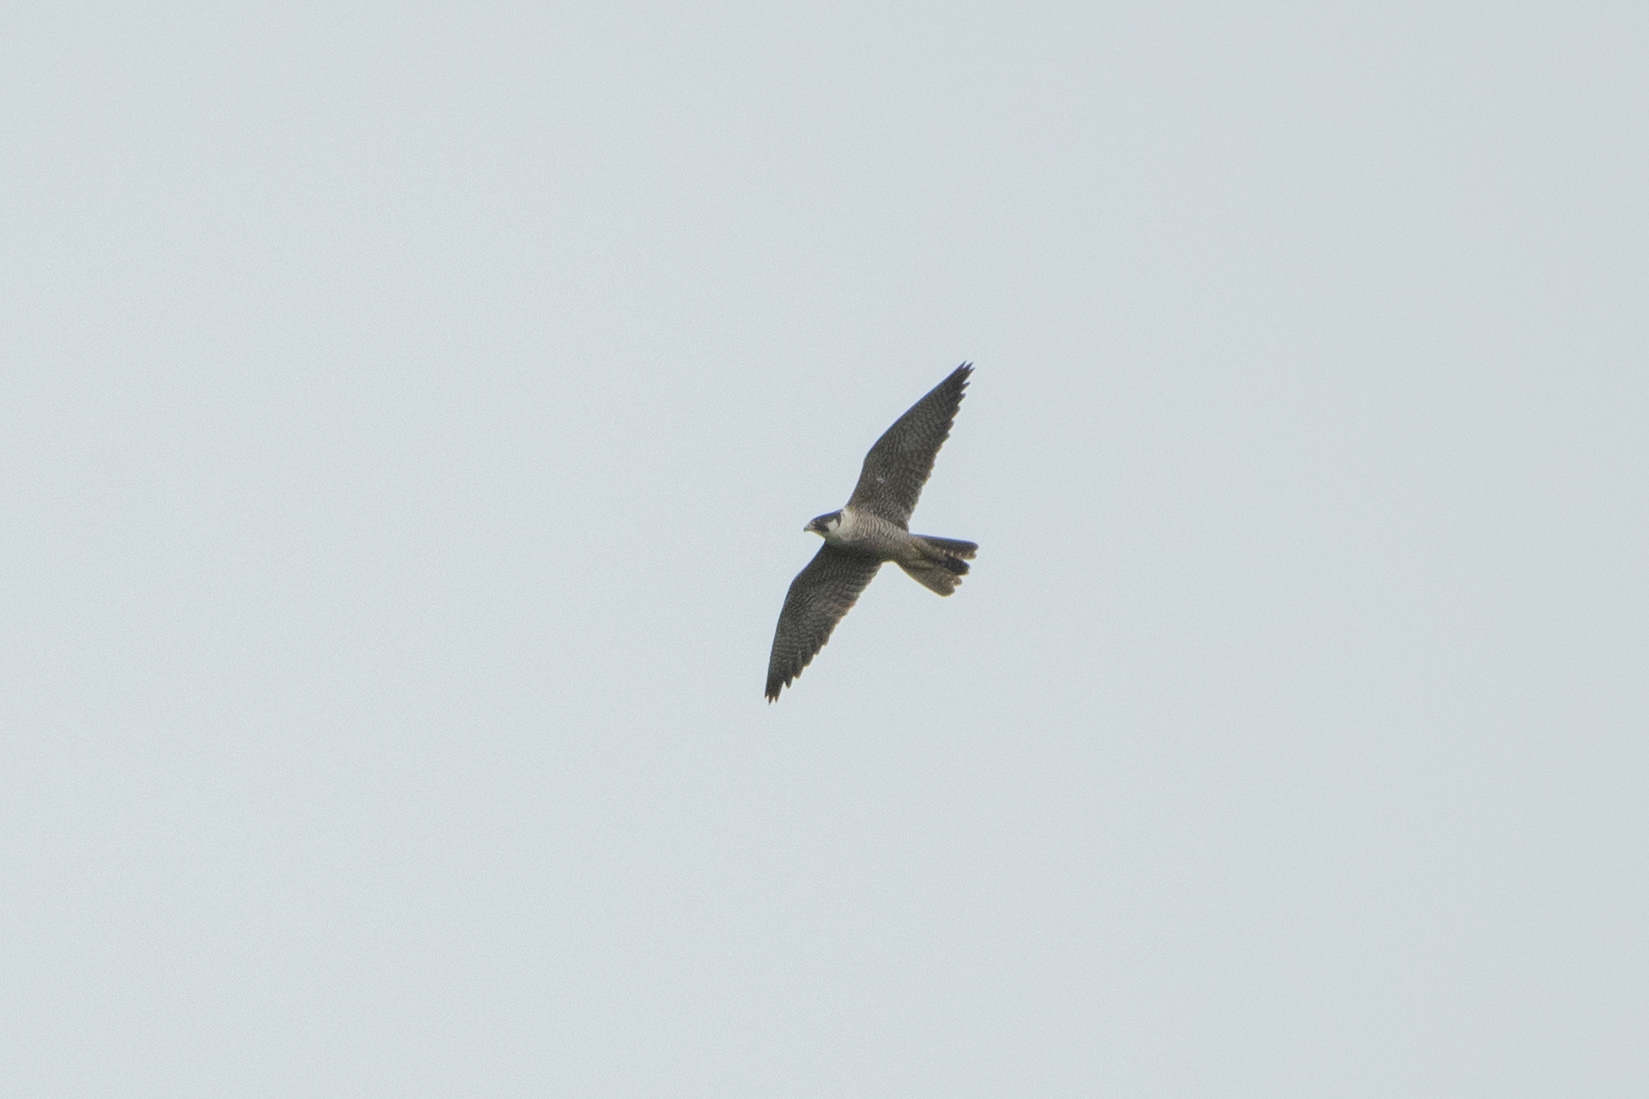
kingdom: Animalia
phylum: Chordata
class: Aves
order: Falconiformes
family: Falconidae
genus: Falco
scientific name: Falco peregrinus
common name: Peregrine falcon
